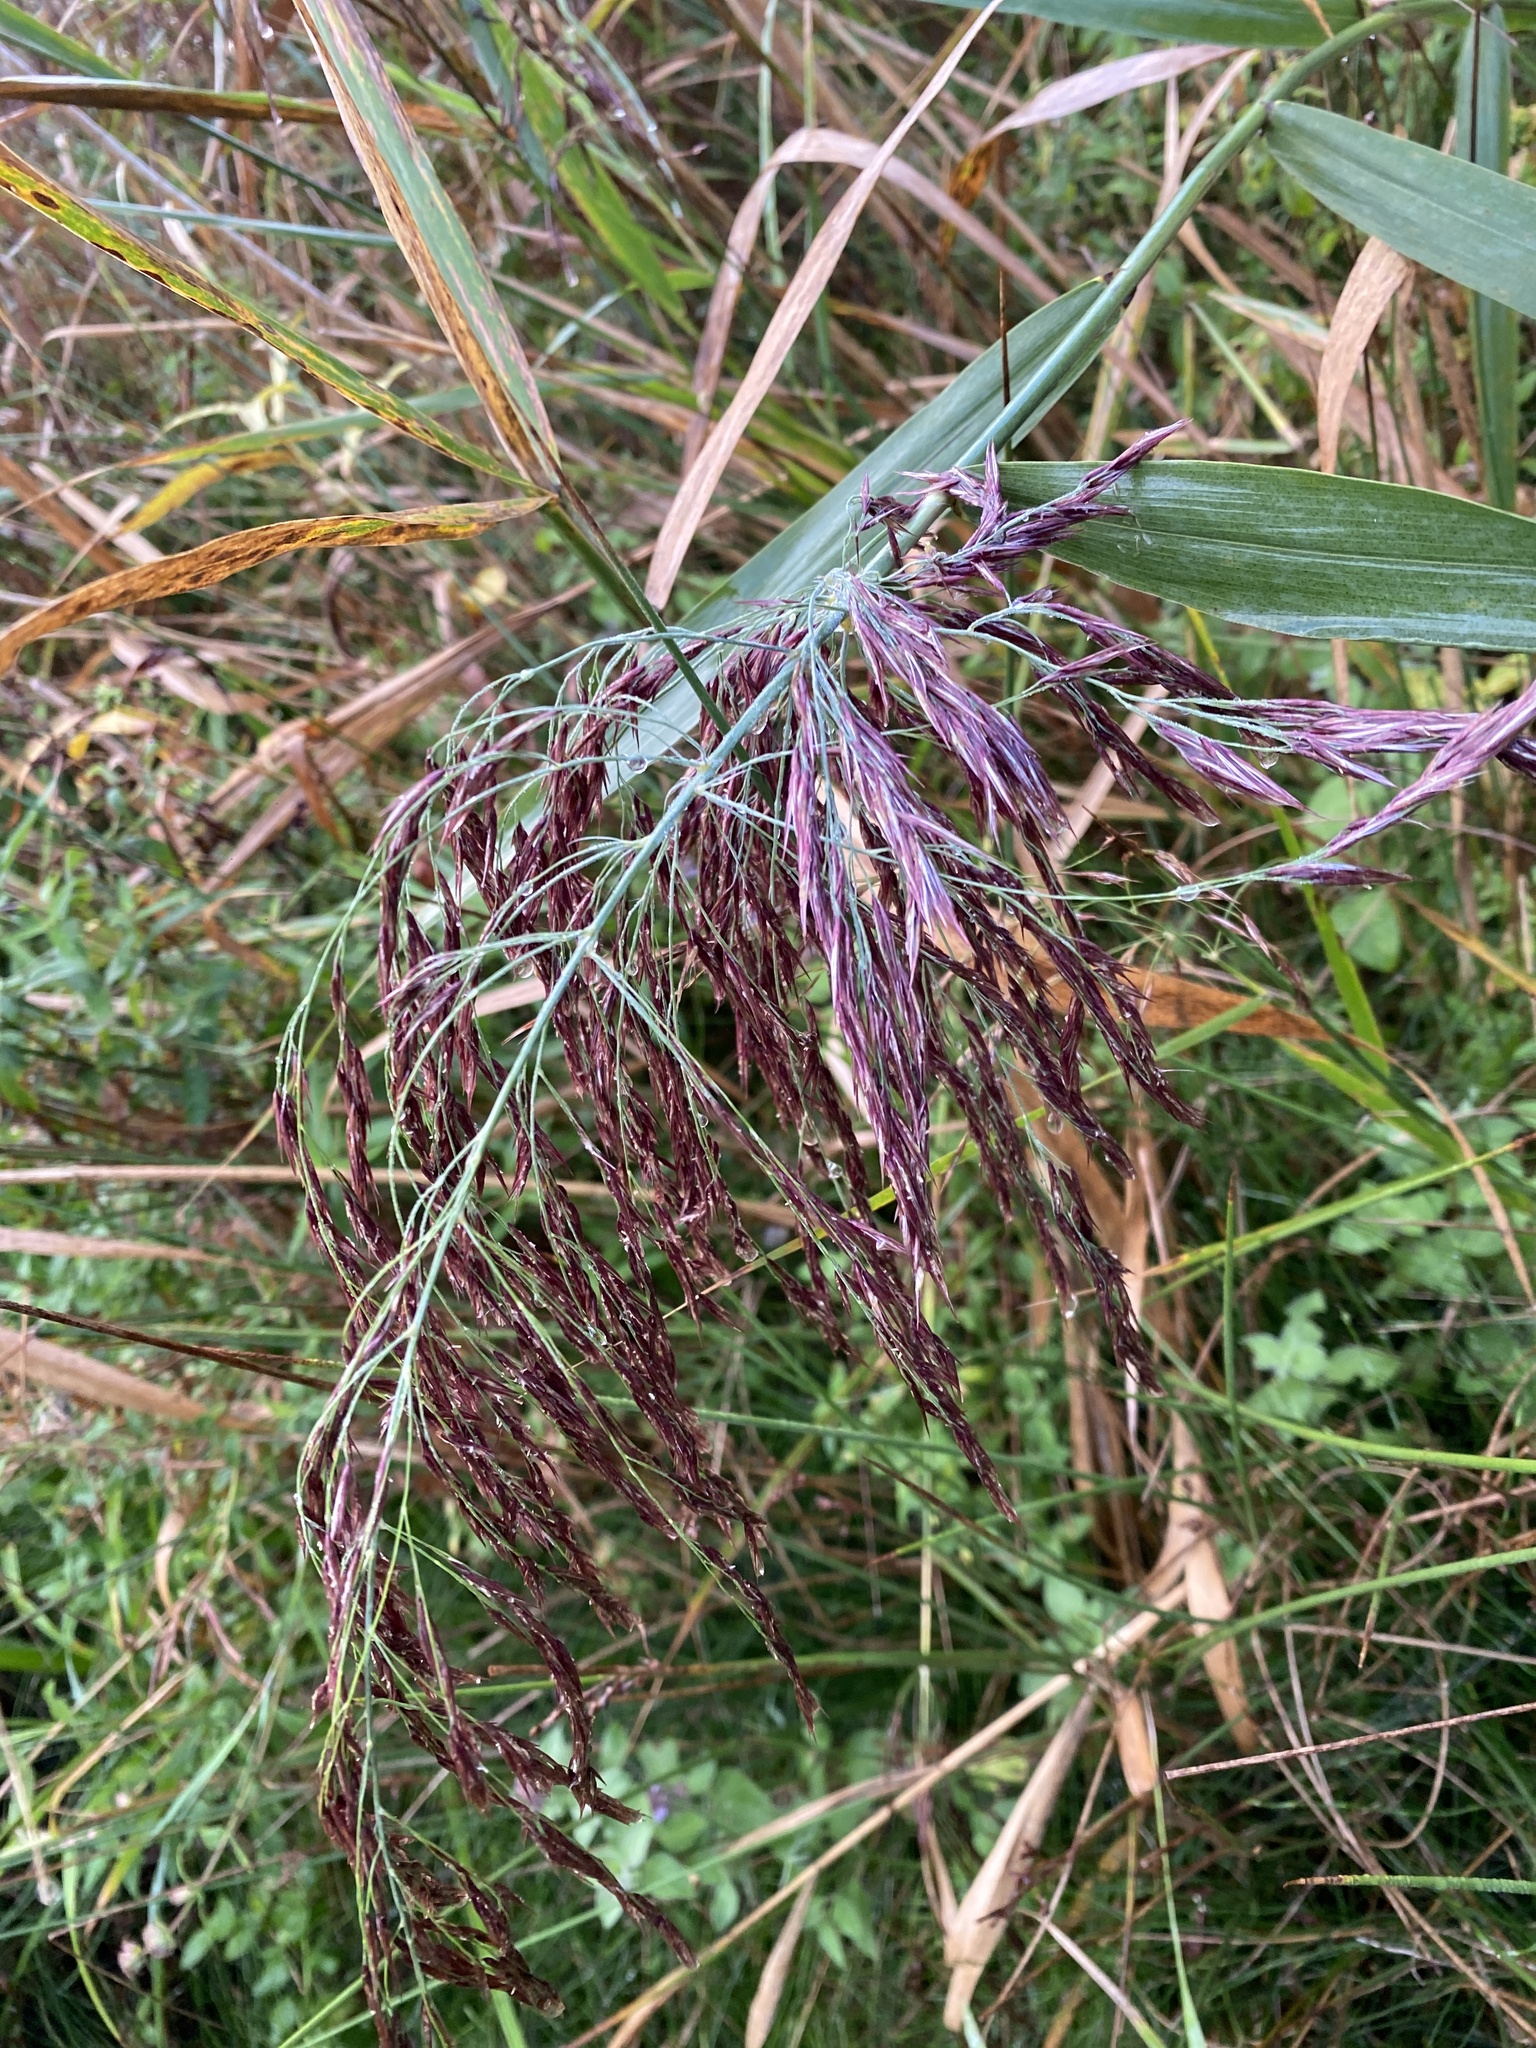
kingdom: Plantae
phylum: Tracheophyta
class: Liliopsida
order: Poales
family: Poaceae
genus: Phragmites
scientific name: Phragmites australis
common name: Common reed
